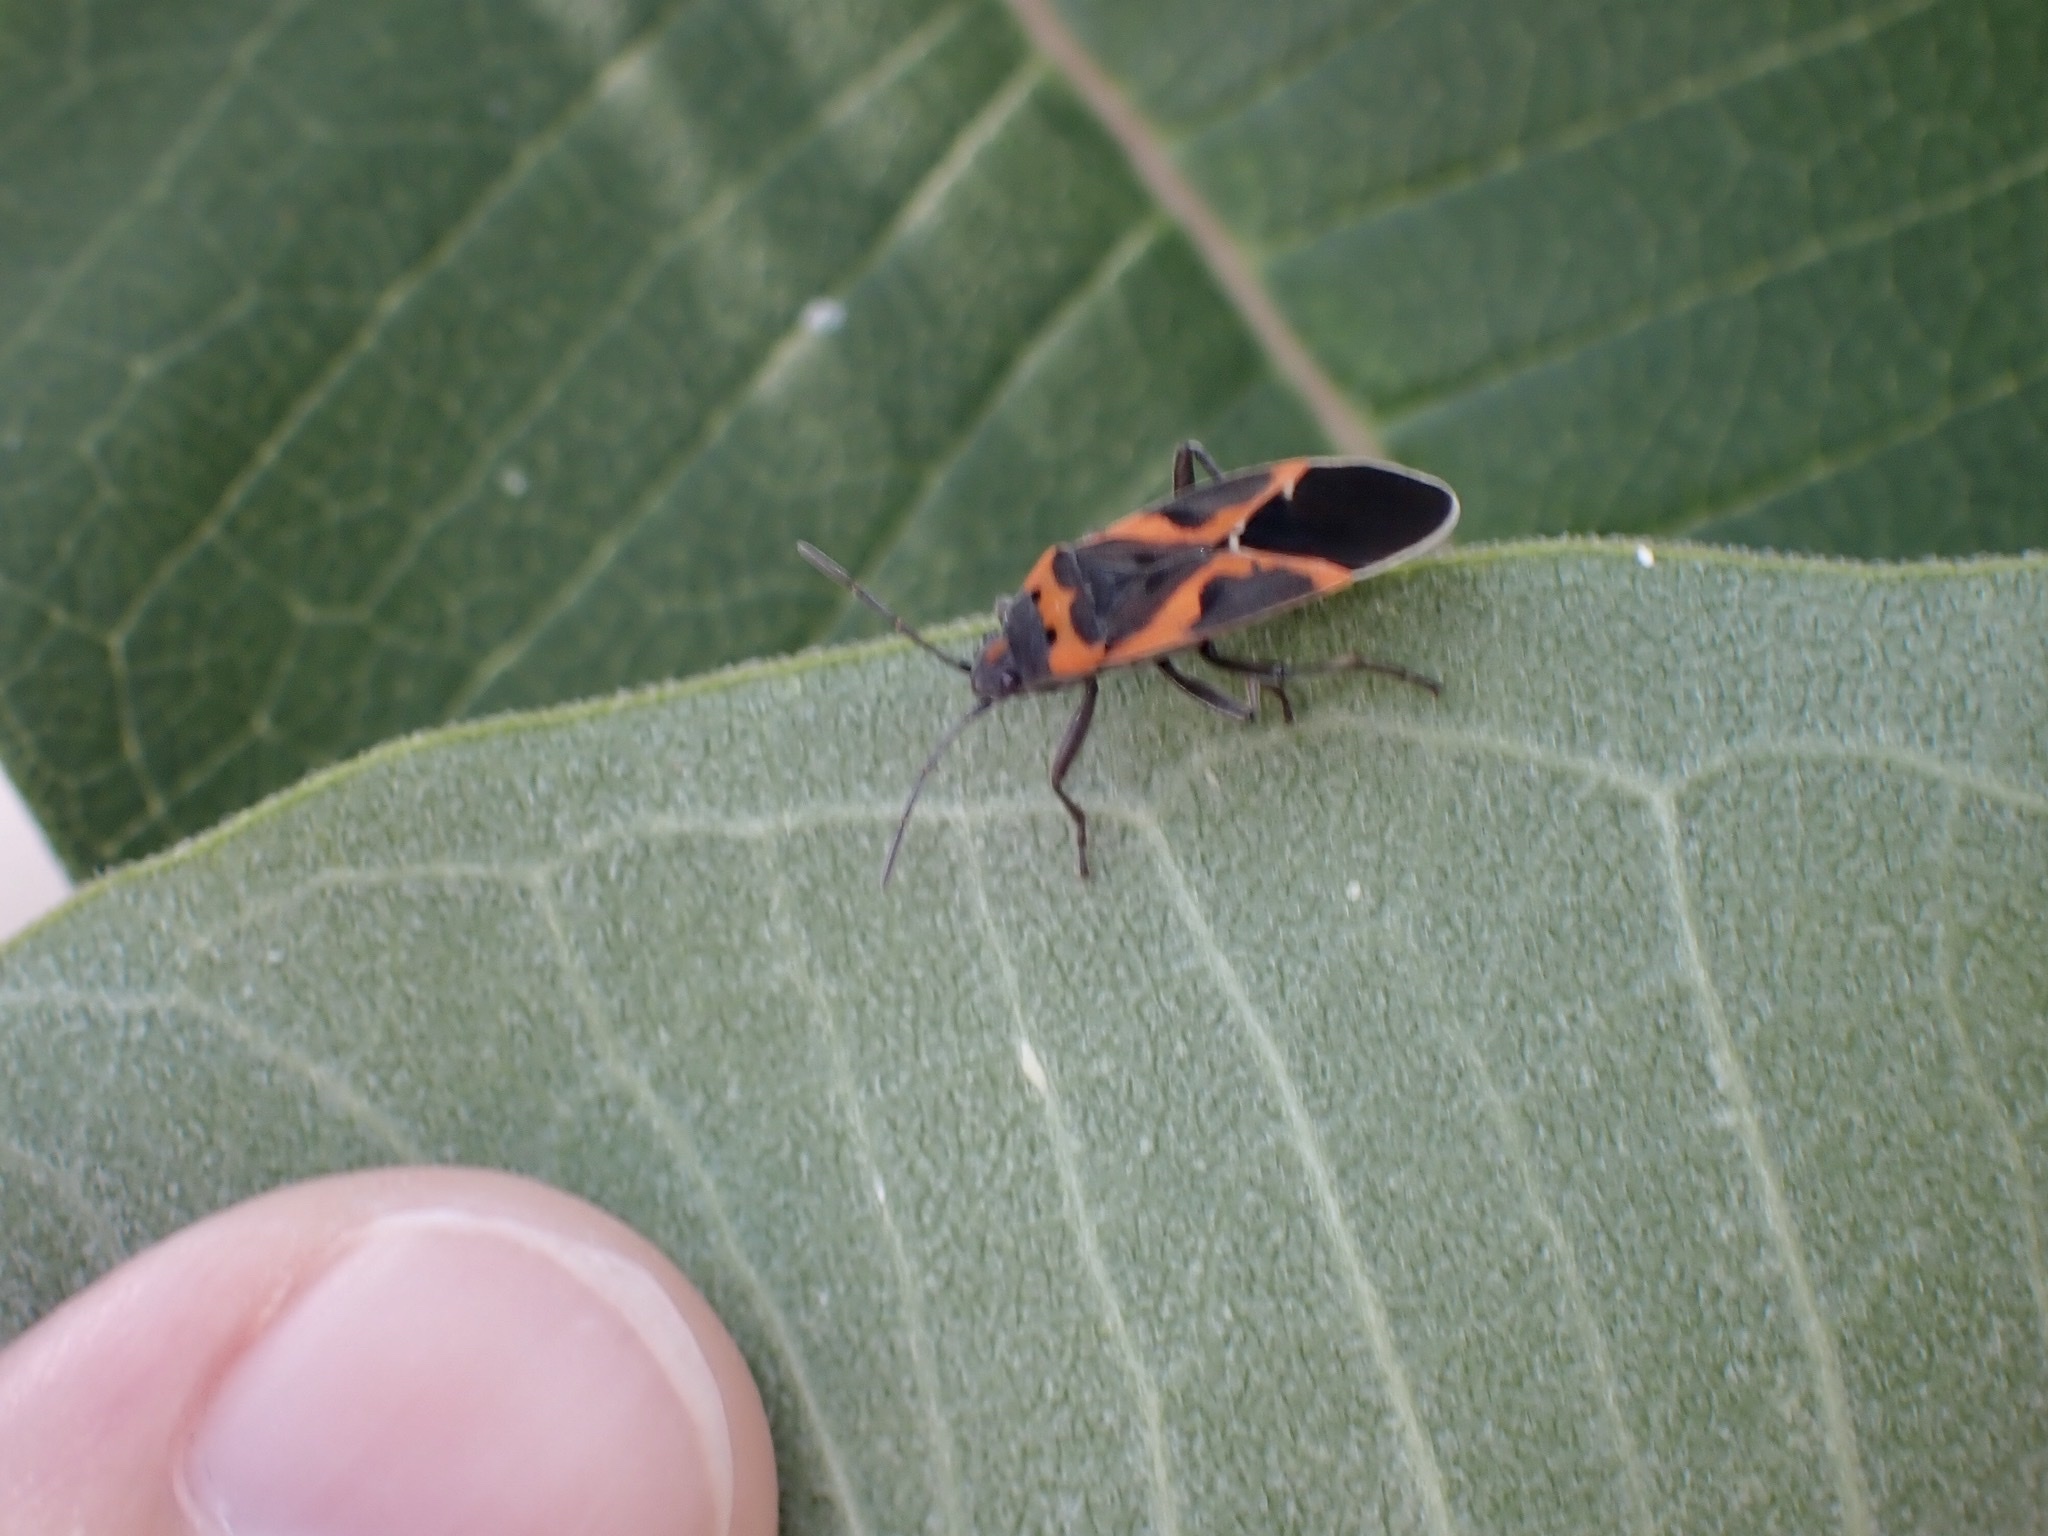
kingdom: Animalia
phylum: Arthropoda
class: Insecta
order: Hemiptera
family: Lygaeidae
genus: Lygaeus
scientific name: Lygaeus kalmii
